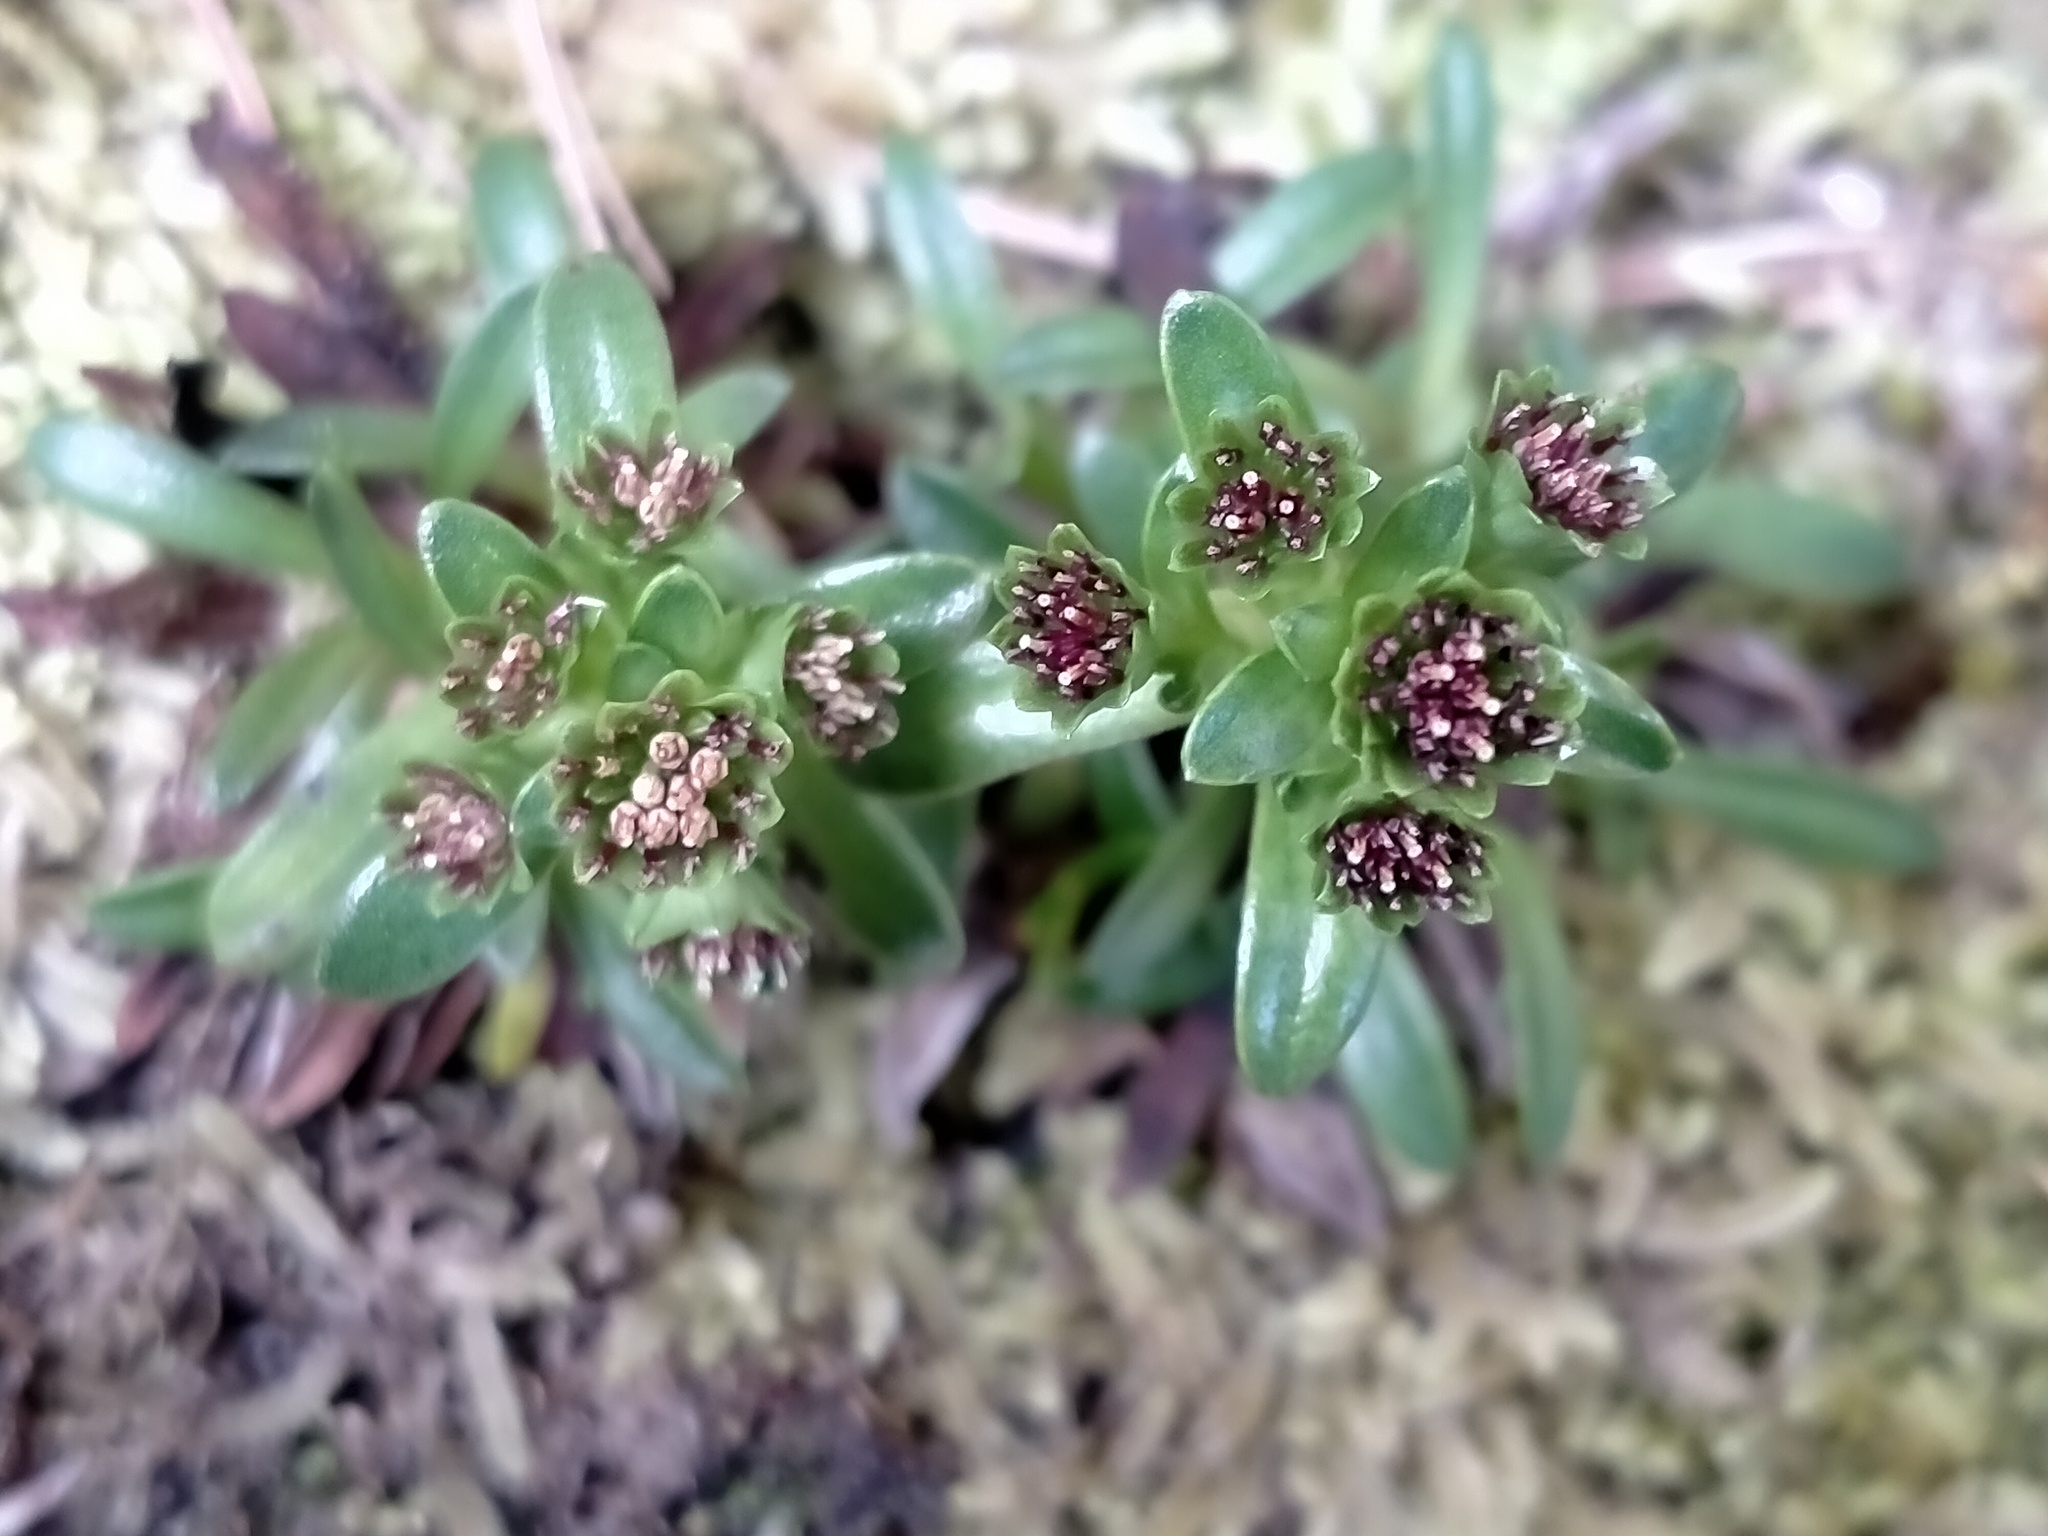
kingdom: Plantae
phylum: Tracheophyta
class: Magnoliopsida
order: Asterales
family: Asteraceae
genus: Abrotanella
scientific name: Abrotanella spathulata
